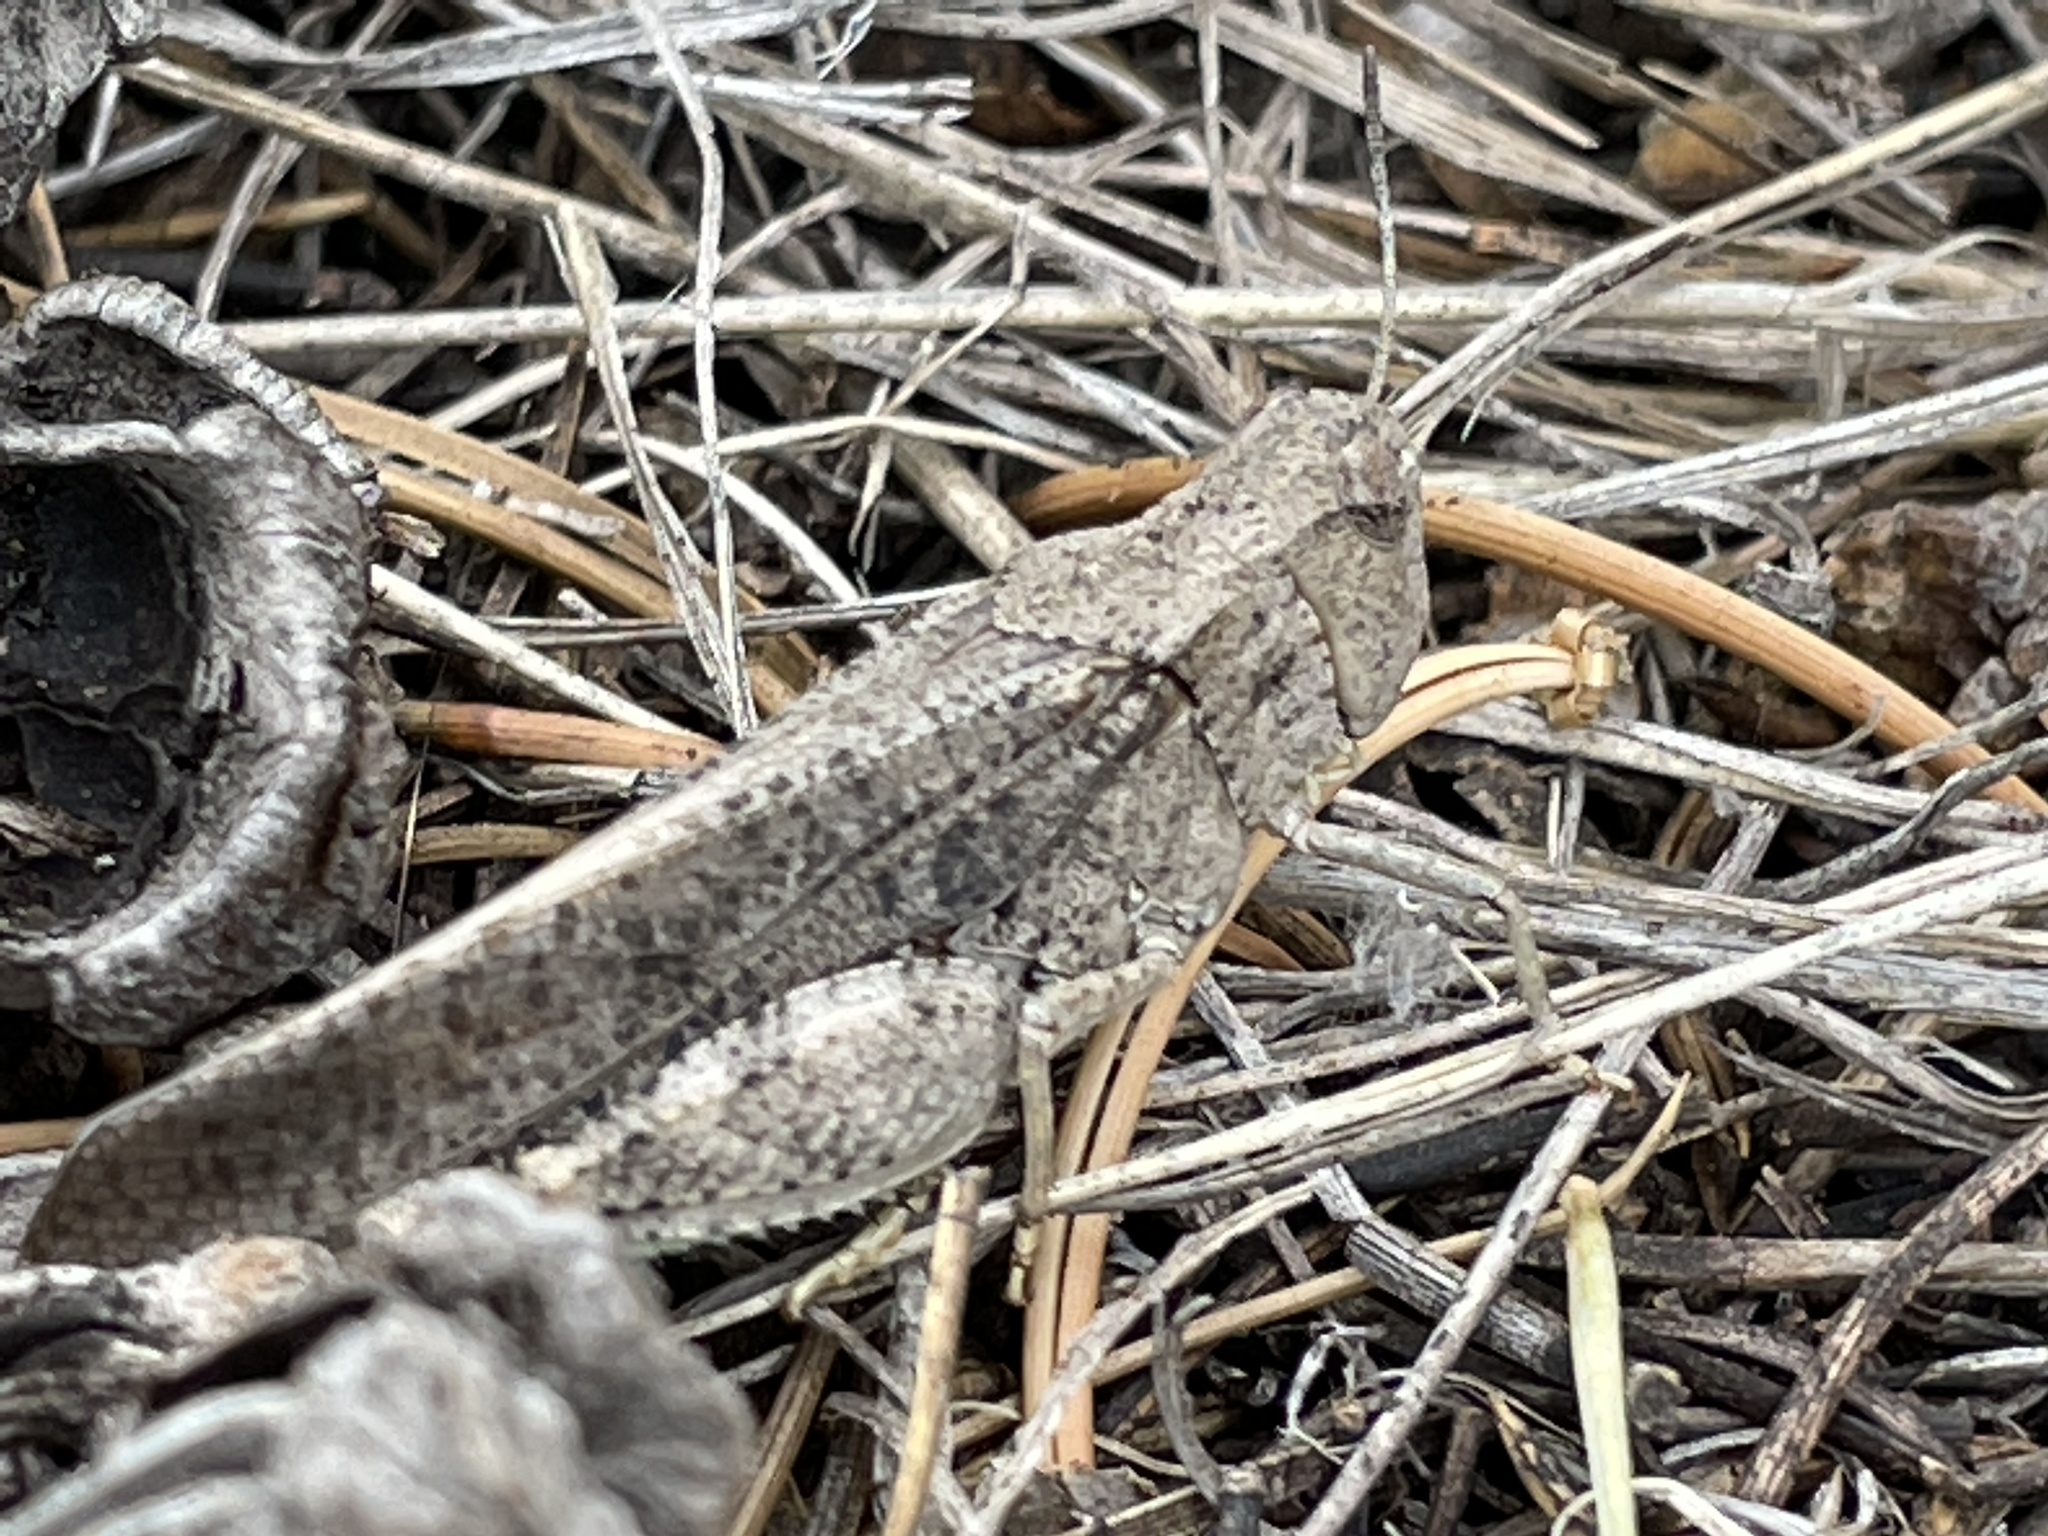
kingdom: Animalia
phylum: Arthropoda
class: Insecta
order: Orthoptera
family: Acrididae
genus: Arphia
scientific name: Arphia conspersa
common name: Speckle-winged rangeland grasshopper
